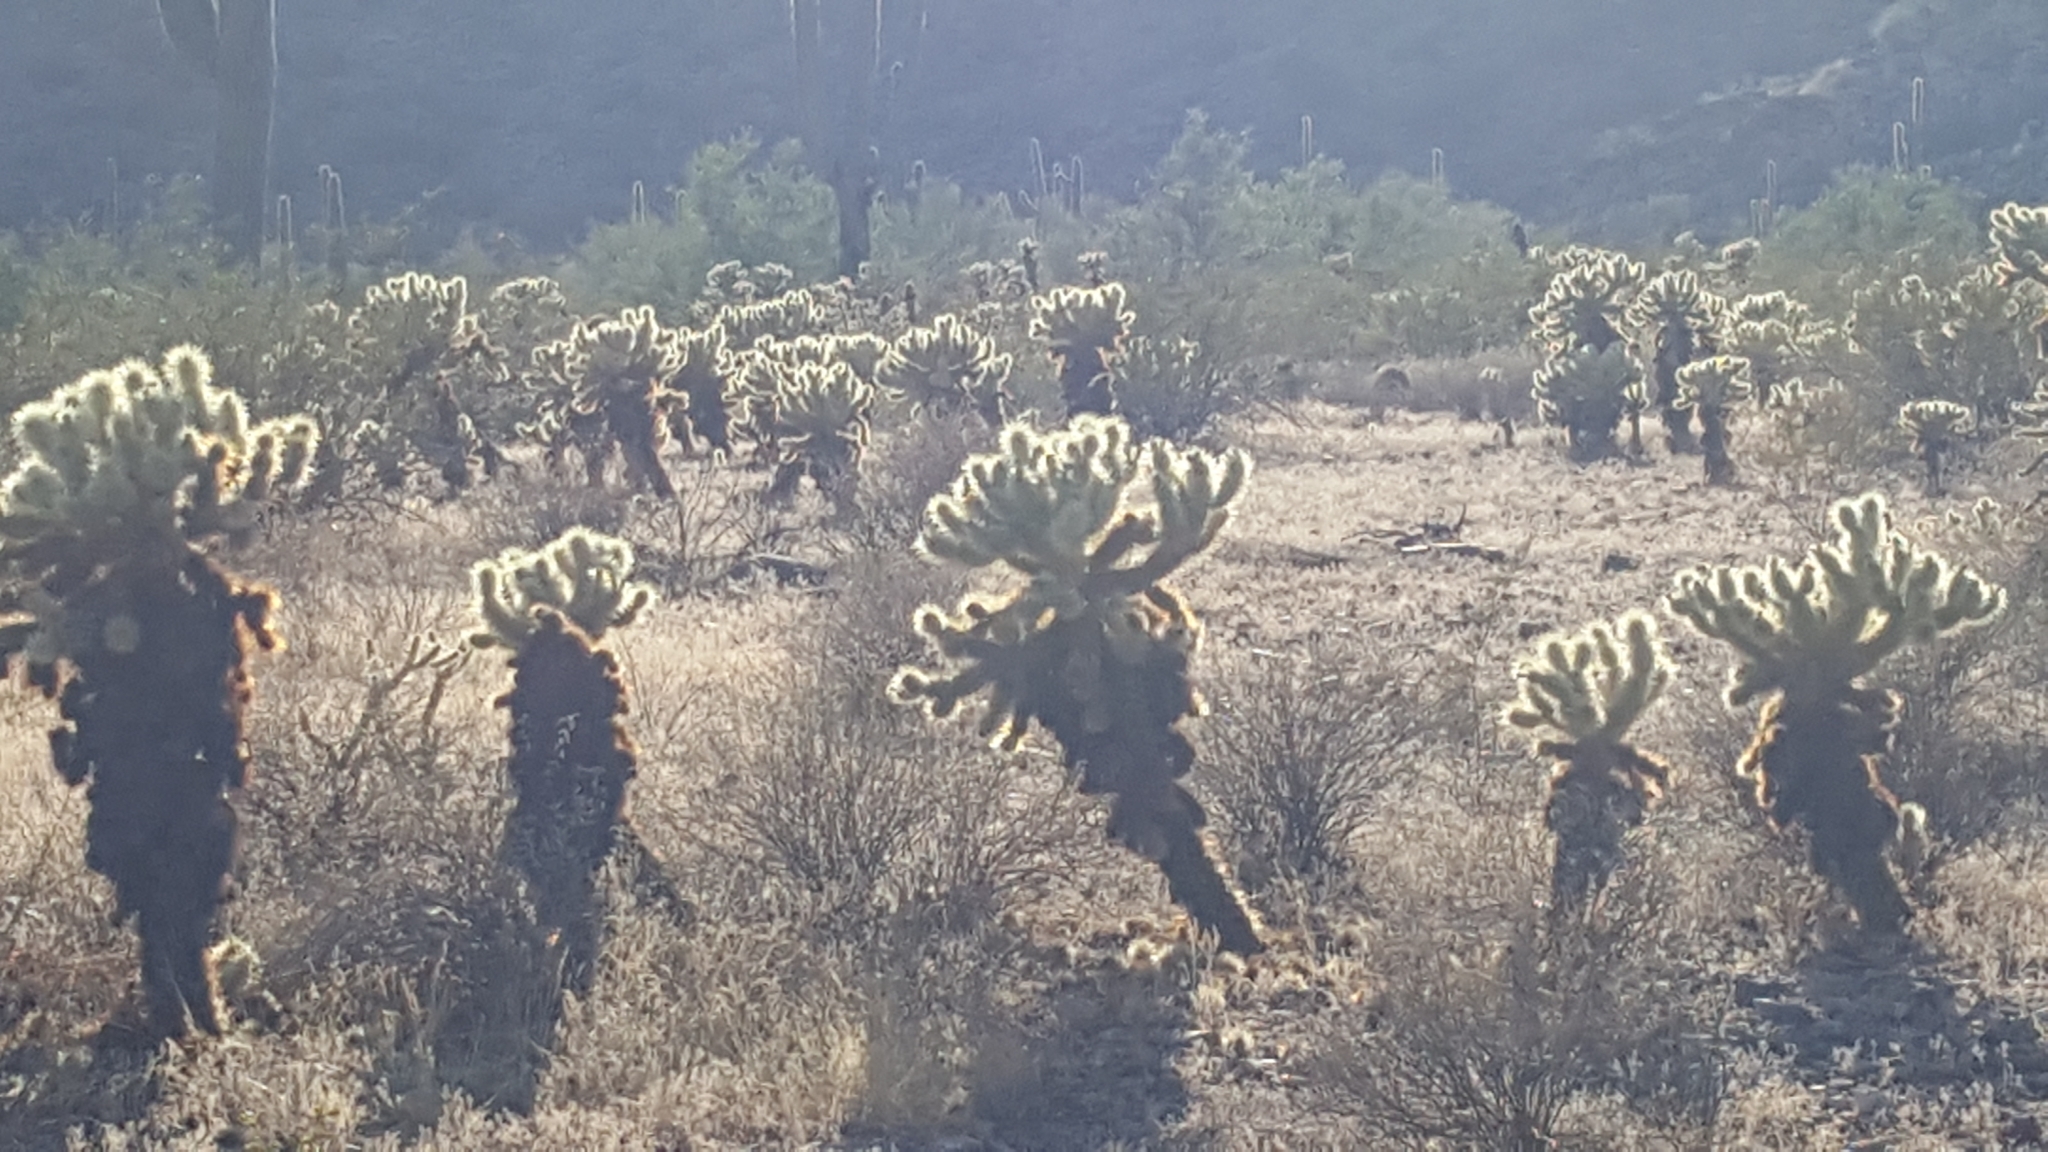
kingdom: Plantae
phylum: Tracheophyta
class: Magnoliopsida
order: Caryophyllales
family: Cactaceae
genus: Cylindropuntia
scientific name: Cylindropuntia fosbergii
